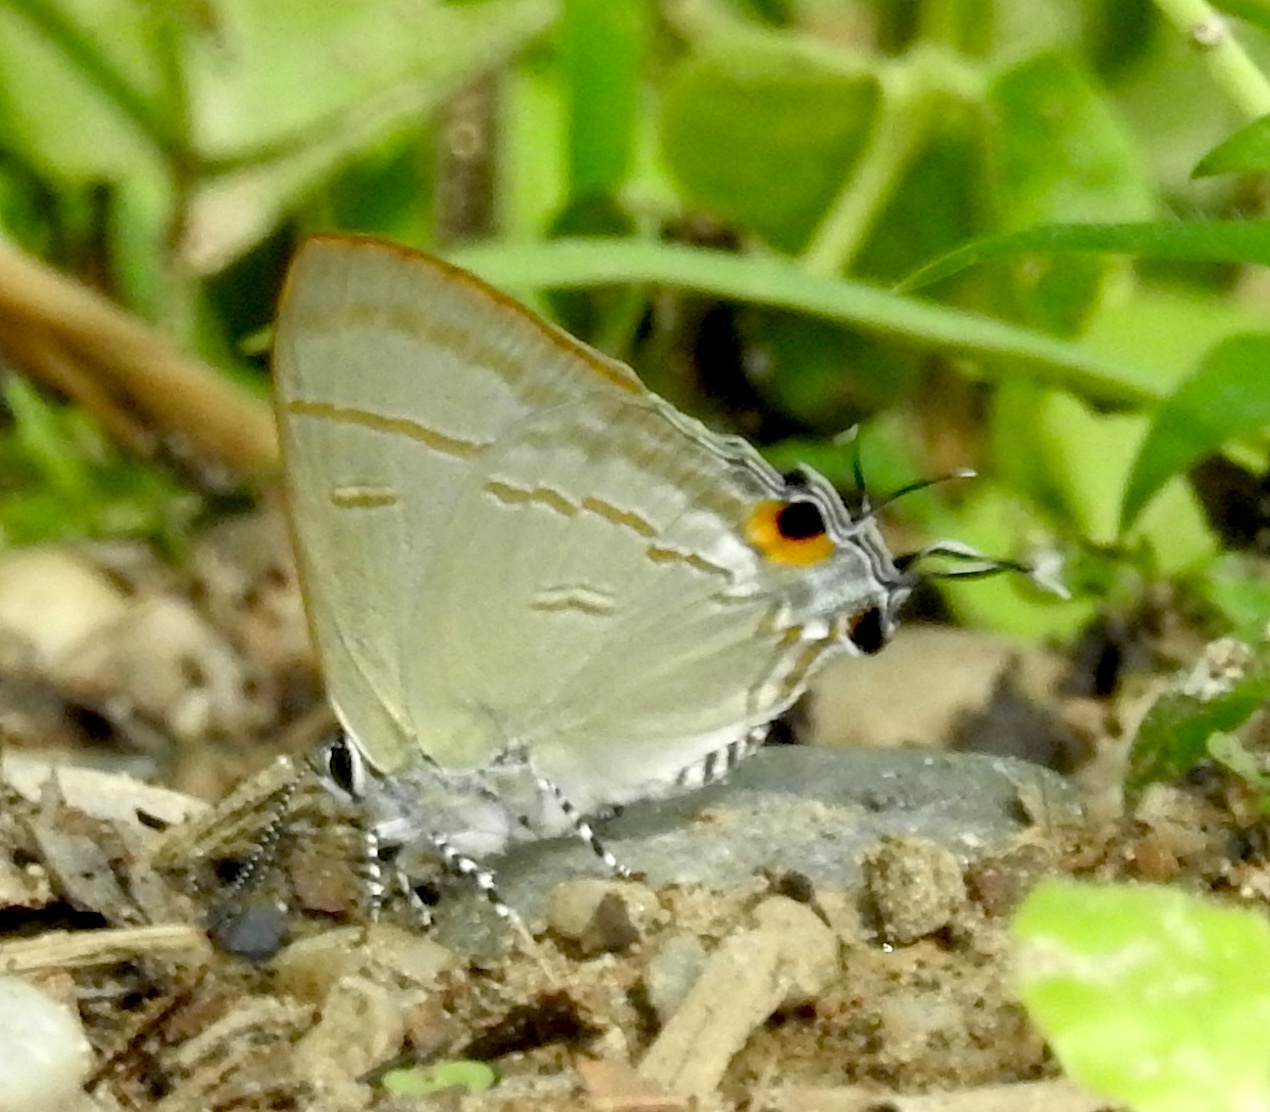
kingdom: Animalia
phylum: Arthropoda
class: Insecta
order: Lepidoptera
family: Lycaenidae
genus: Hypolycaena
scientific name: Hypolycaena erylus
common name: Common tit
